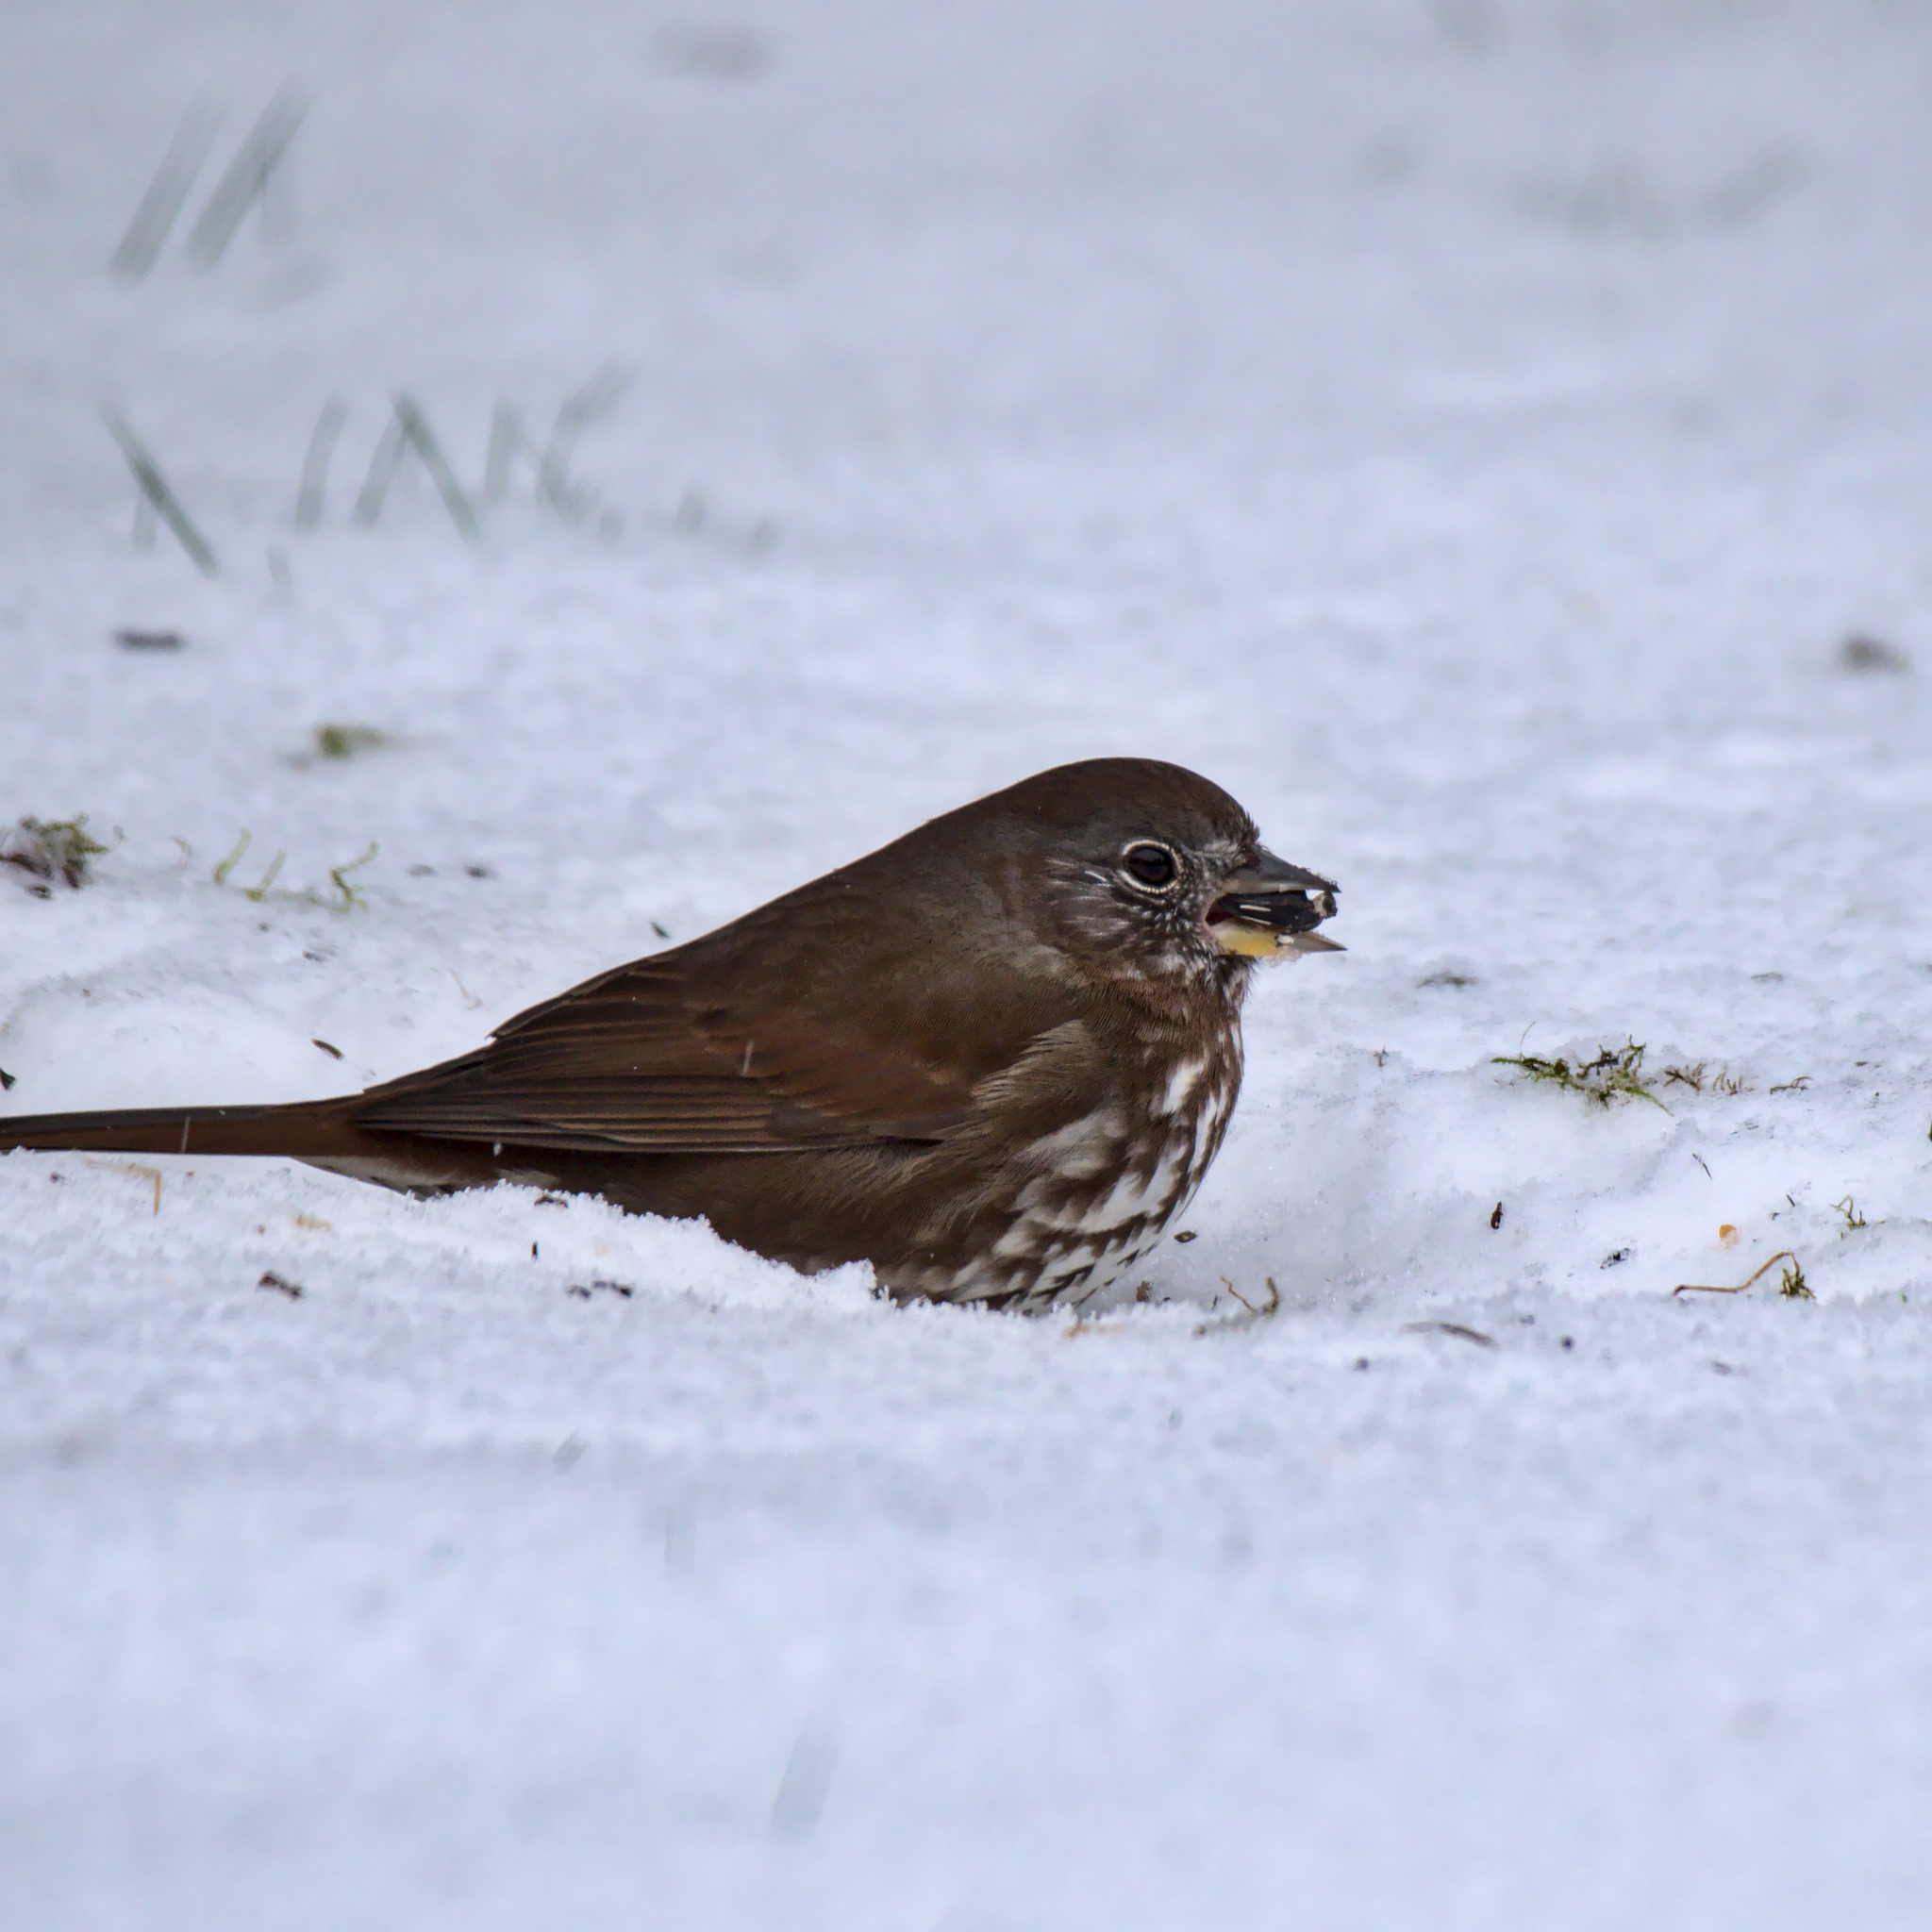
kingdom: Animalia
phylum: Chordata
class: Aves
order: Passeriformes
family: Passerellidae
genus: Passerella
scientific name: Passerella iliaca
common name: Fox sparrow
